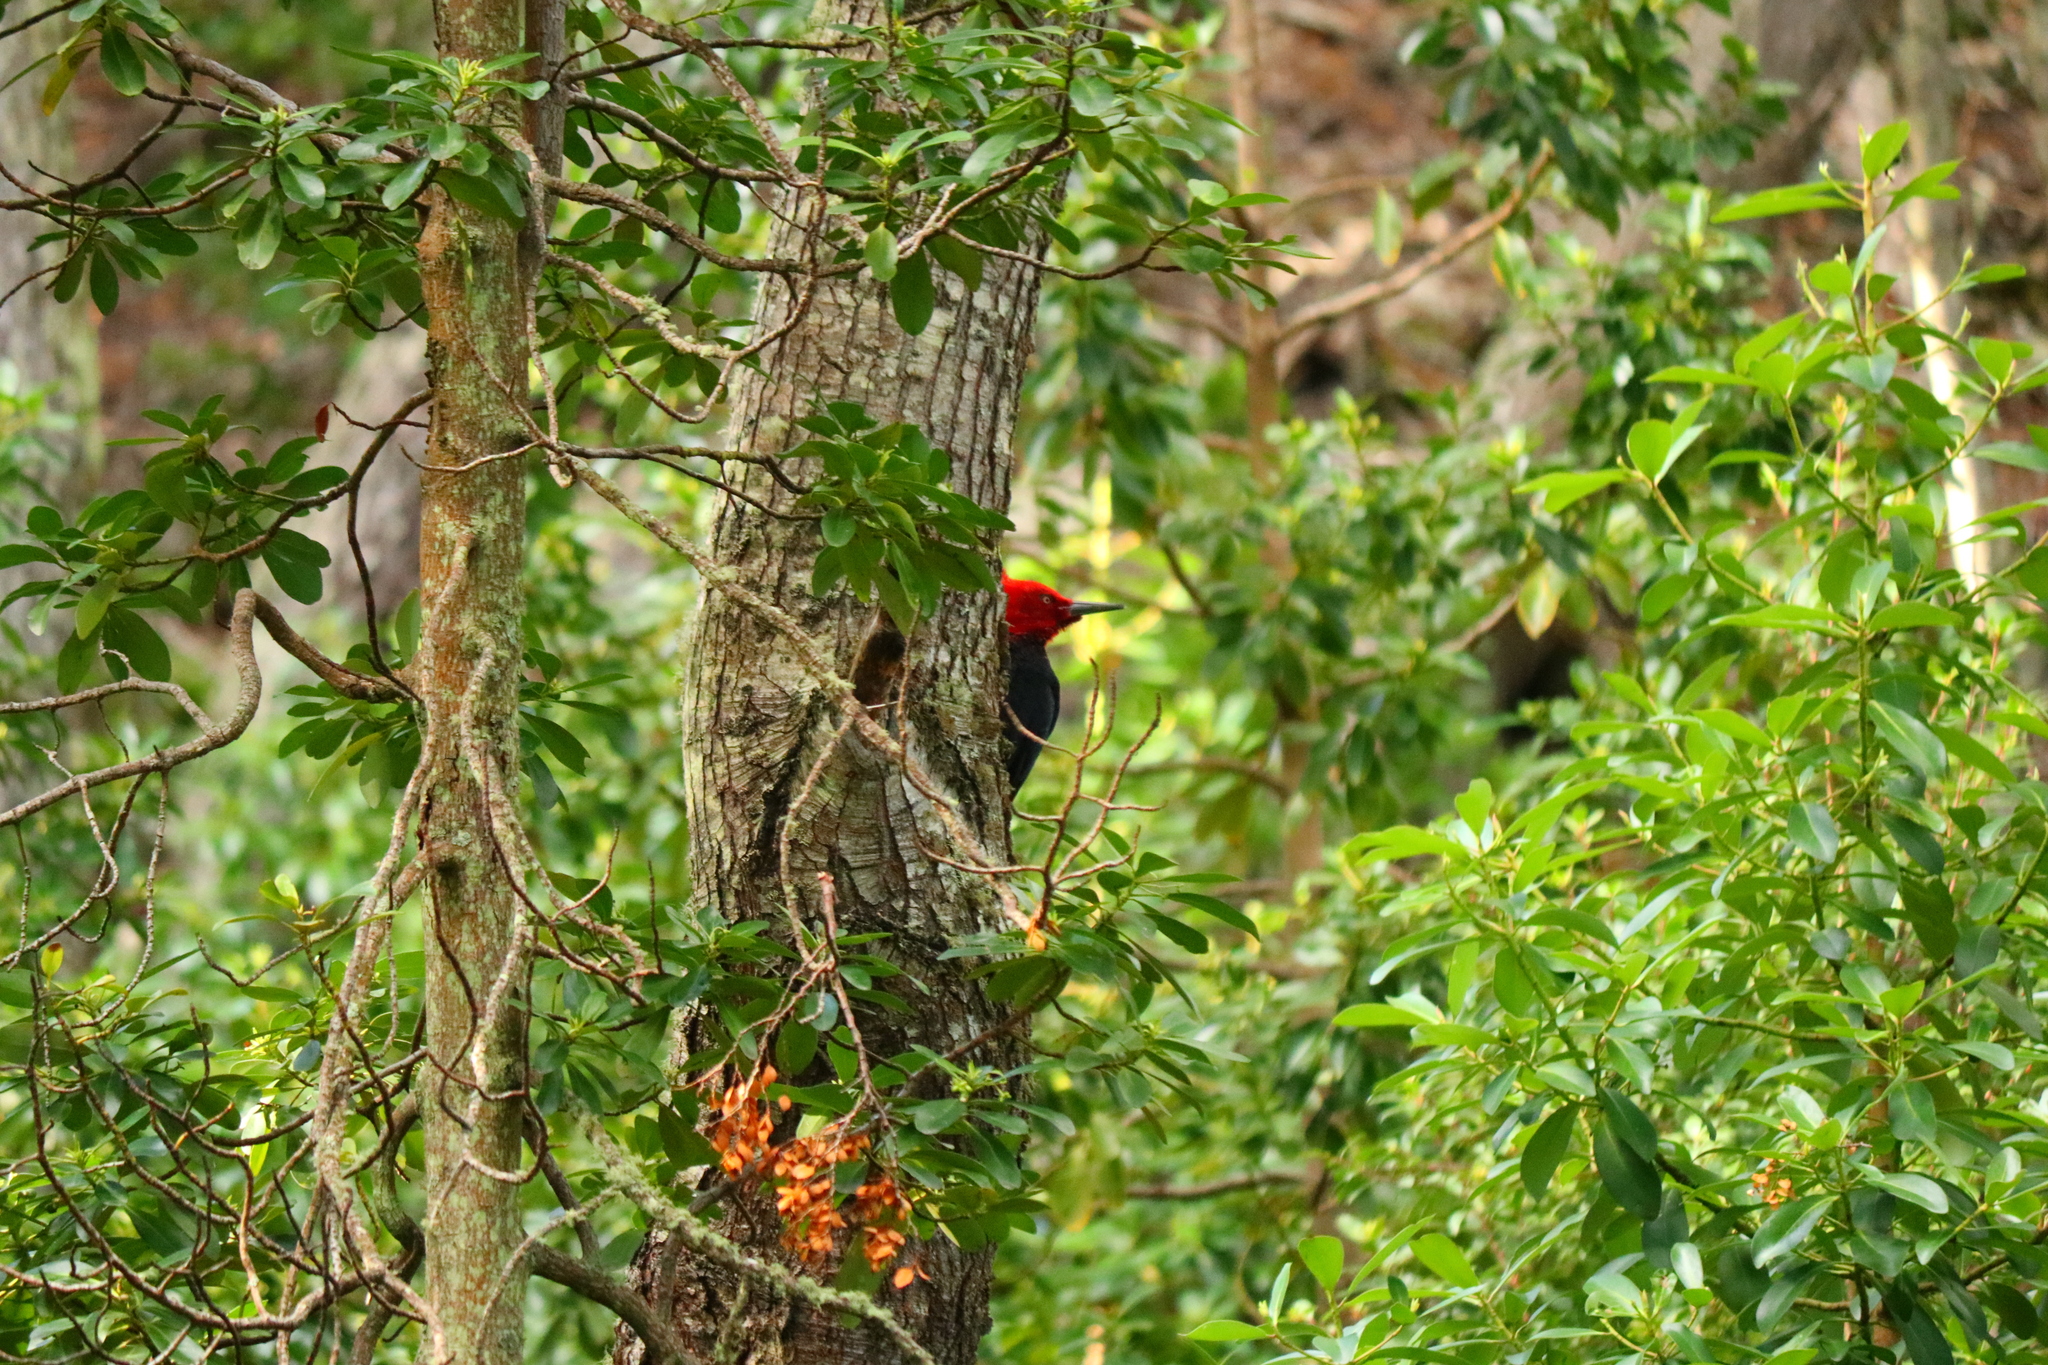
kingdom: Animalia
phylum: Chordata
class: Aves
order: Piciformes
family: Picidae
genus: Campephilus
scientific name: Campephilus magellanicus
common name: Magellanic woodpecker
